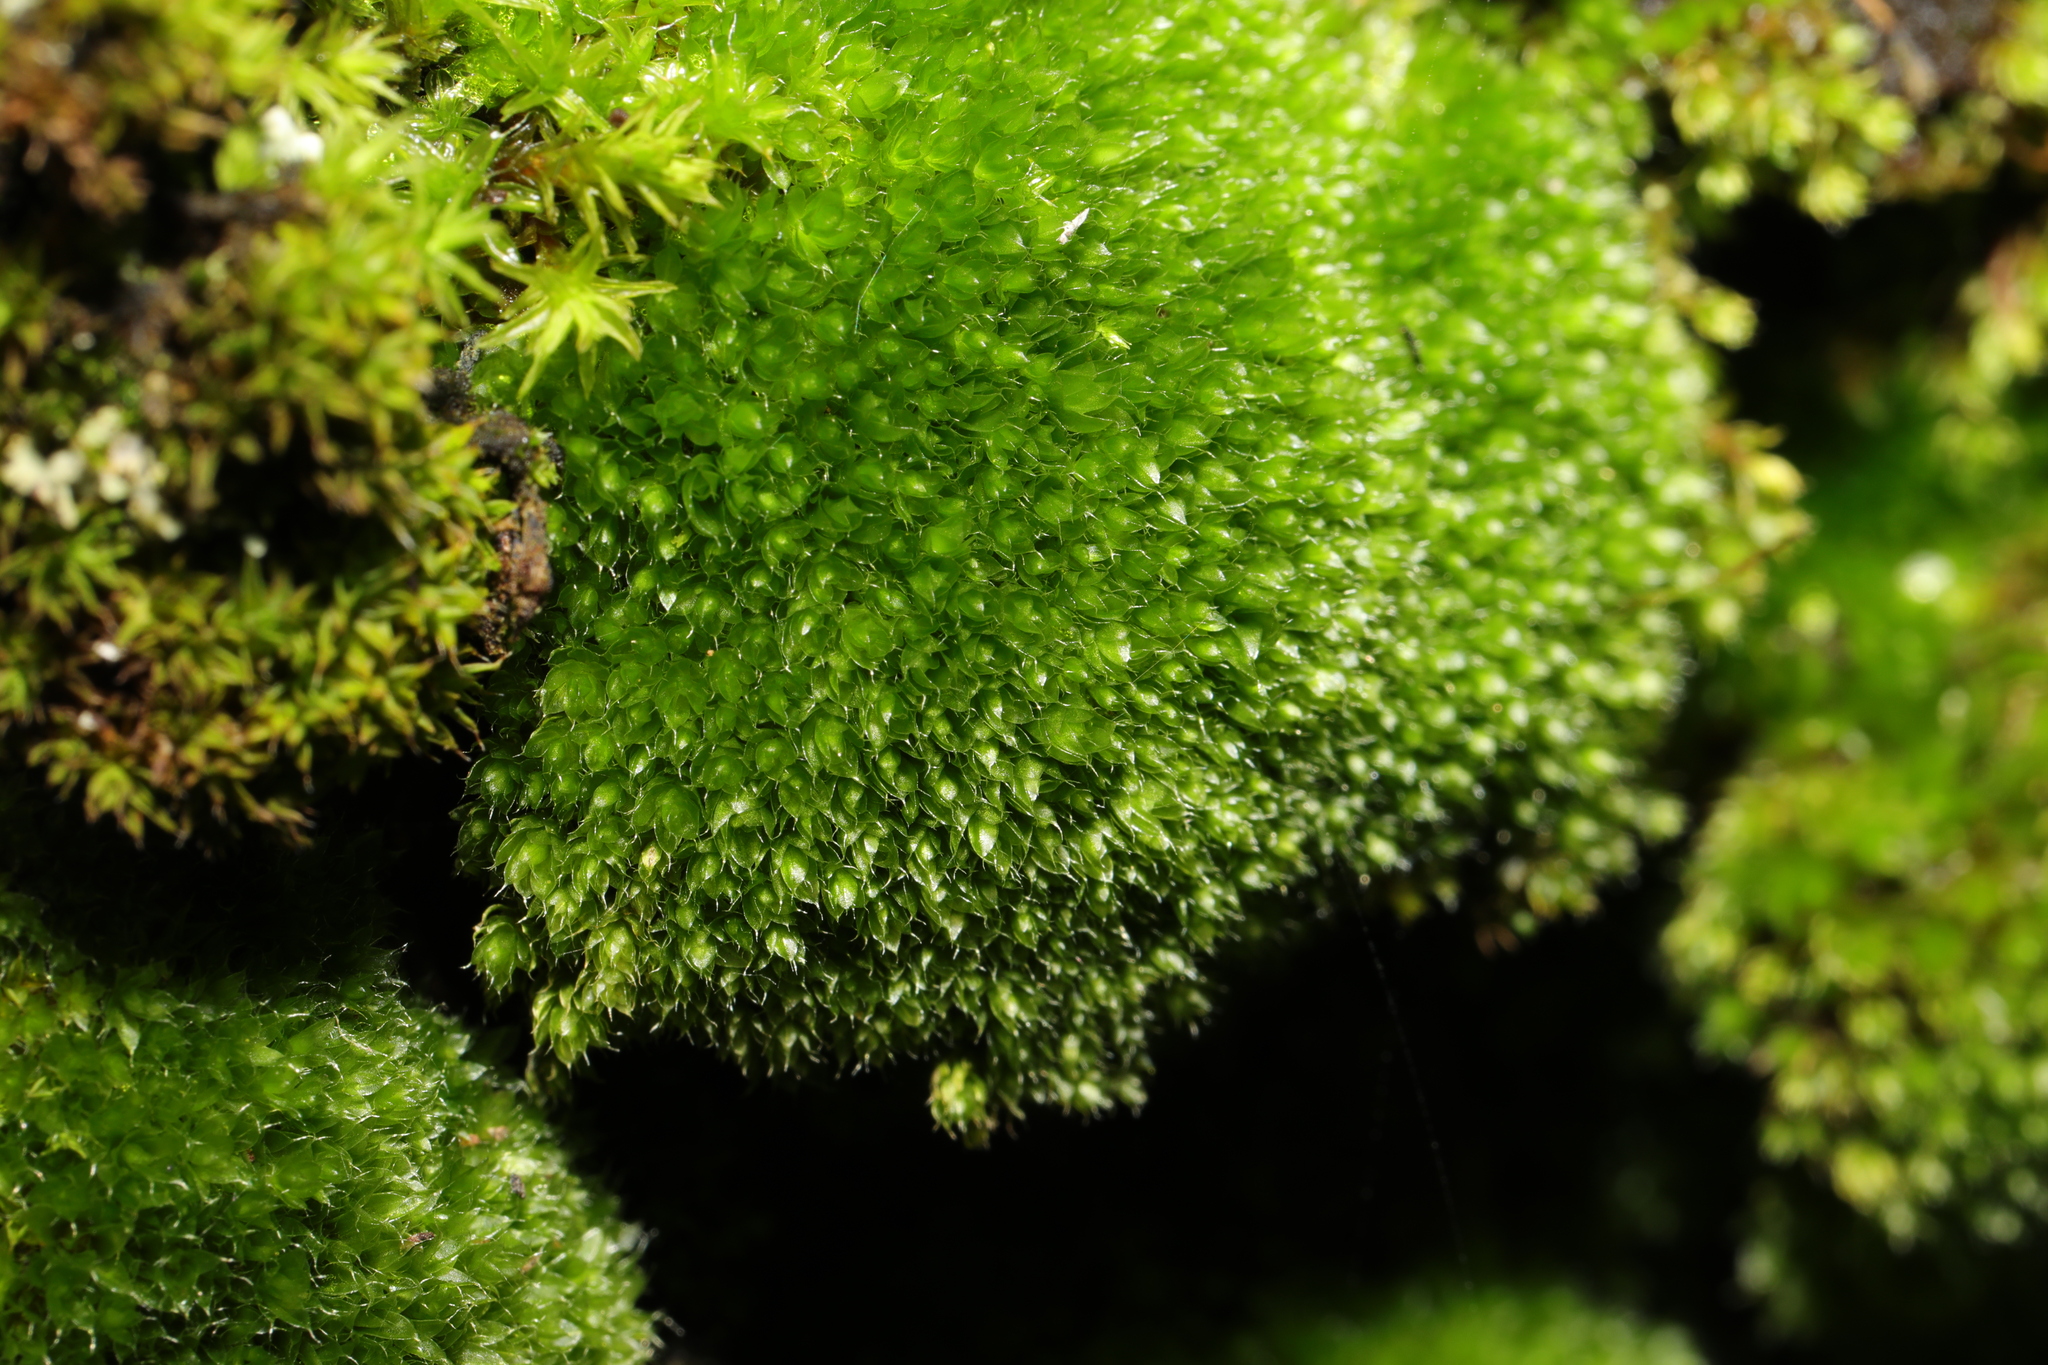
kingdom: Plantae
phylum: Bryophyta
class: Bryopsida
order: Bryales
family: Bryaceae
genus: Rosulabryum
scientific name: Rosulabryum capillare
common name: Capillary thread-moss
